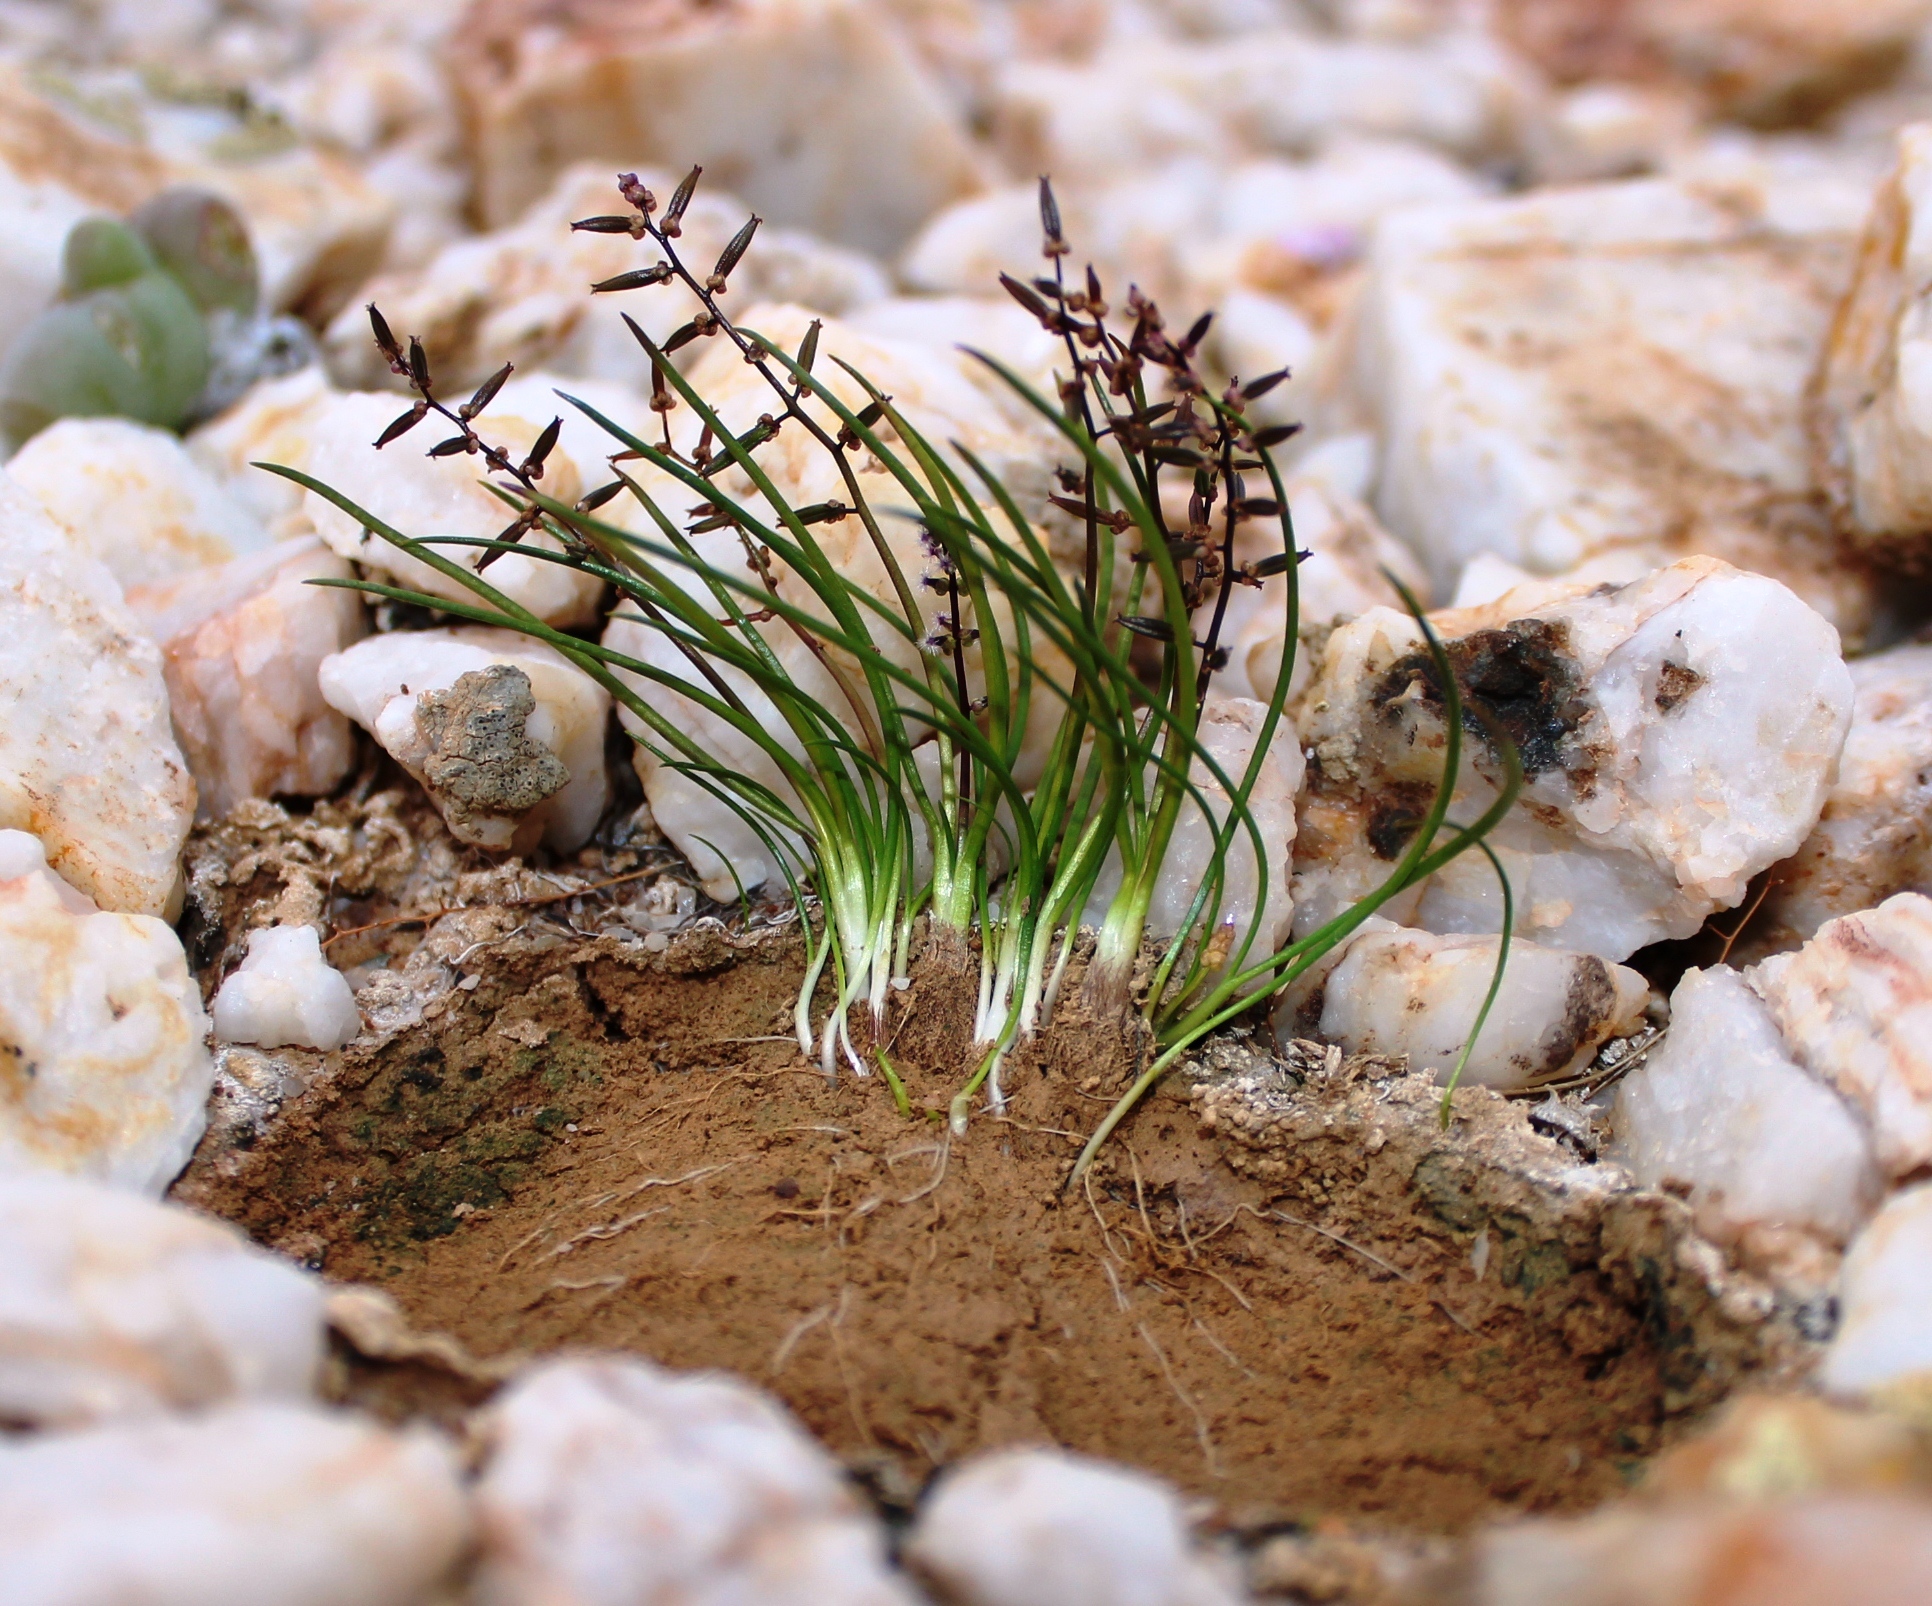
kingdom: Plantae
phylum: Tracheophyta
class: Liliopsida
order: Alismatales
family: Juncaginaceae
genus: Triglochin
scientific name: Triglochin bulbosa
